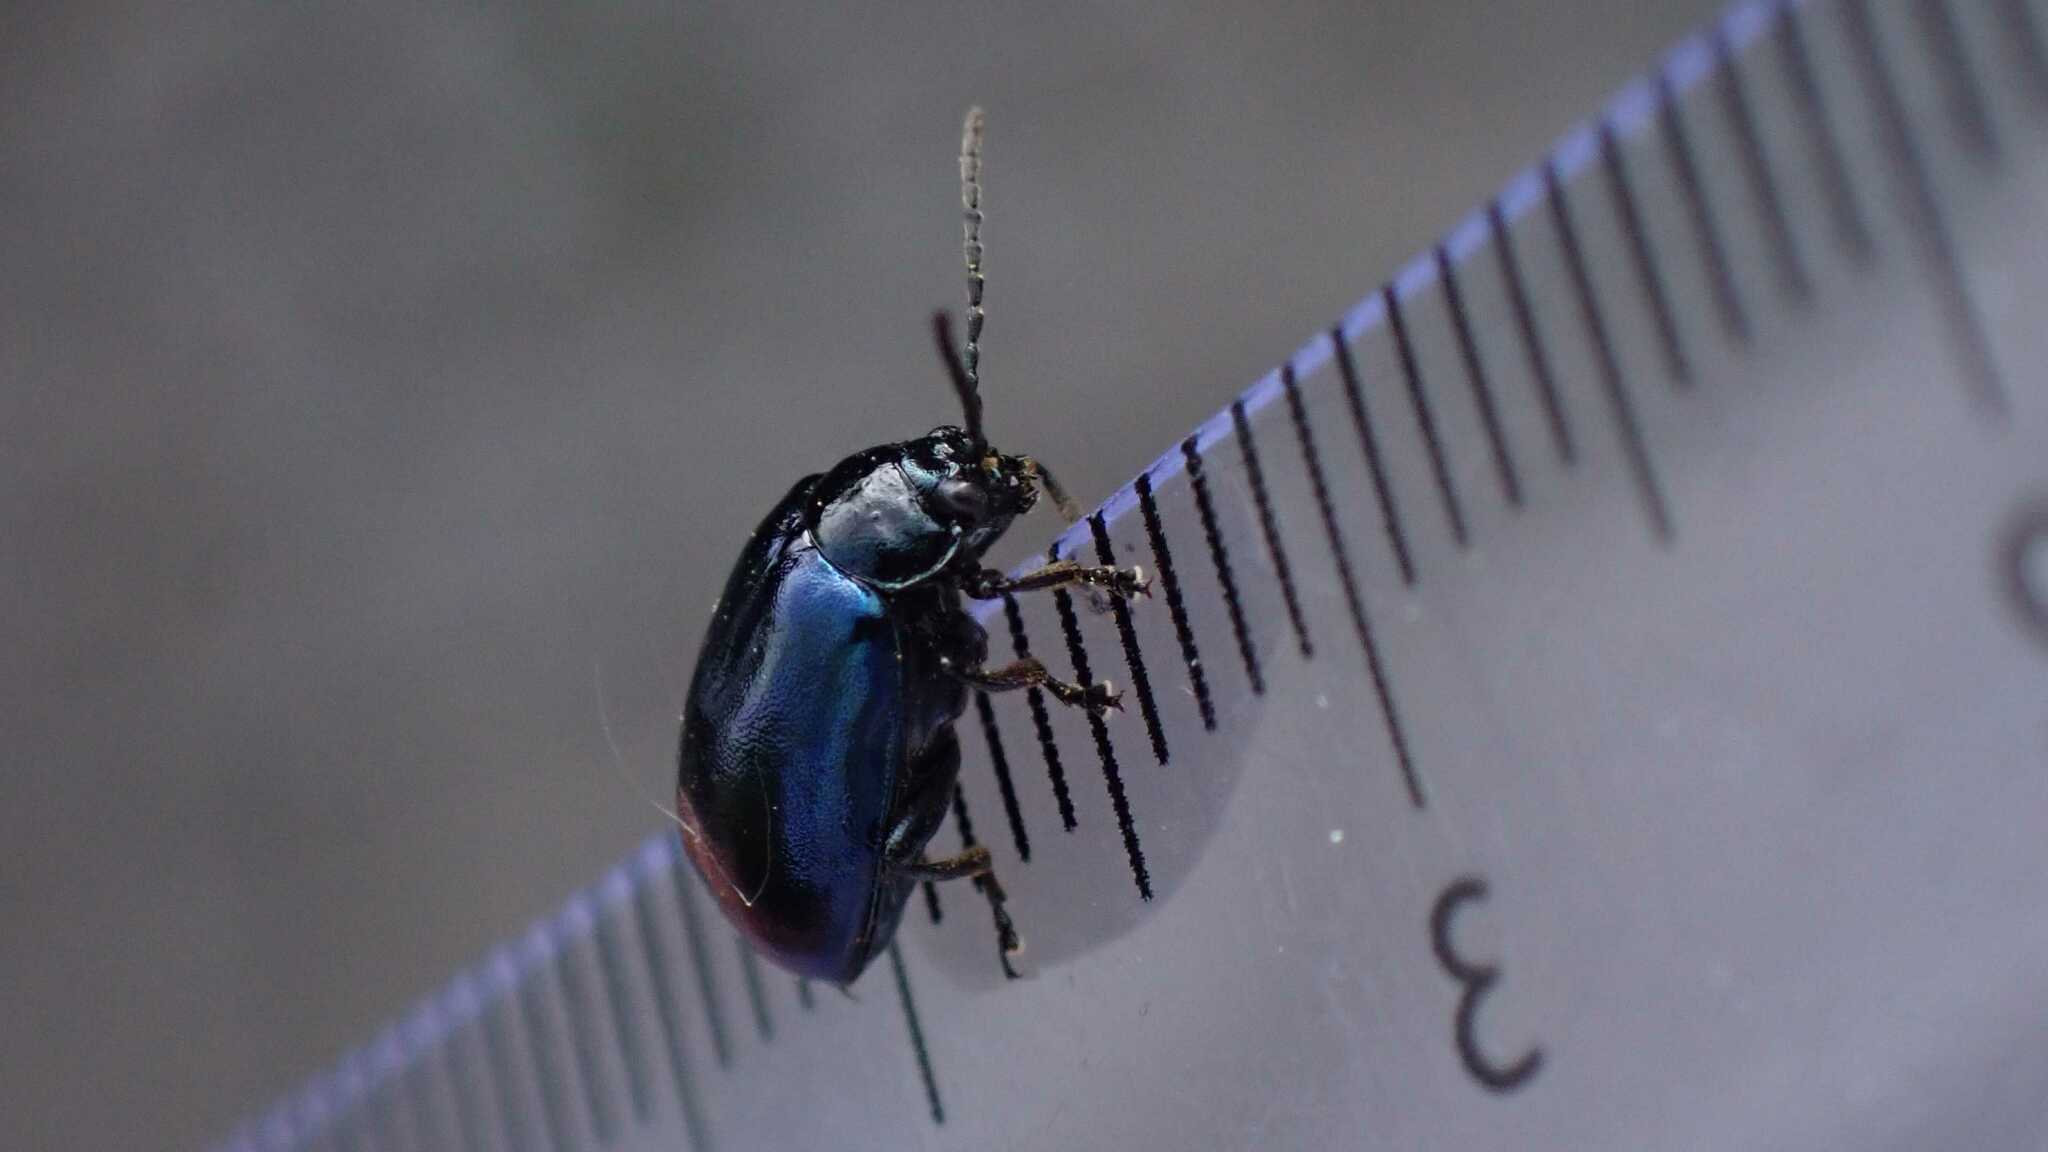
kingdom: Animalia
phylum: Arthropoda
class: Insecta
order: Coleoptera
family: Chrysomelidae
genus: Agelastica
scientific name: Agelastica alni
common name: Alder leaf beetle
